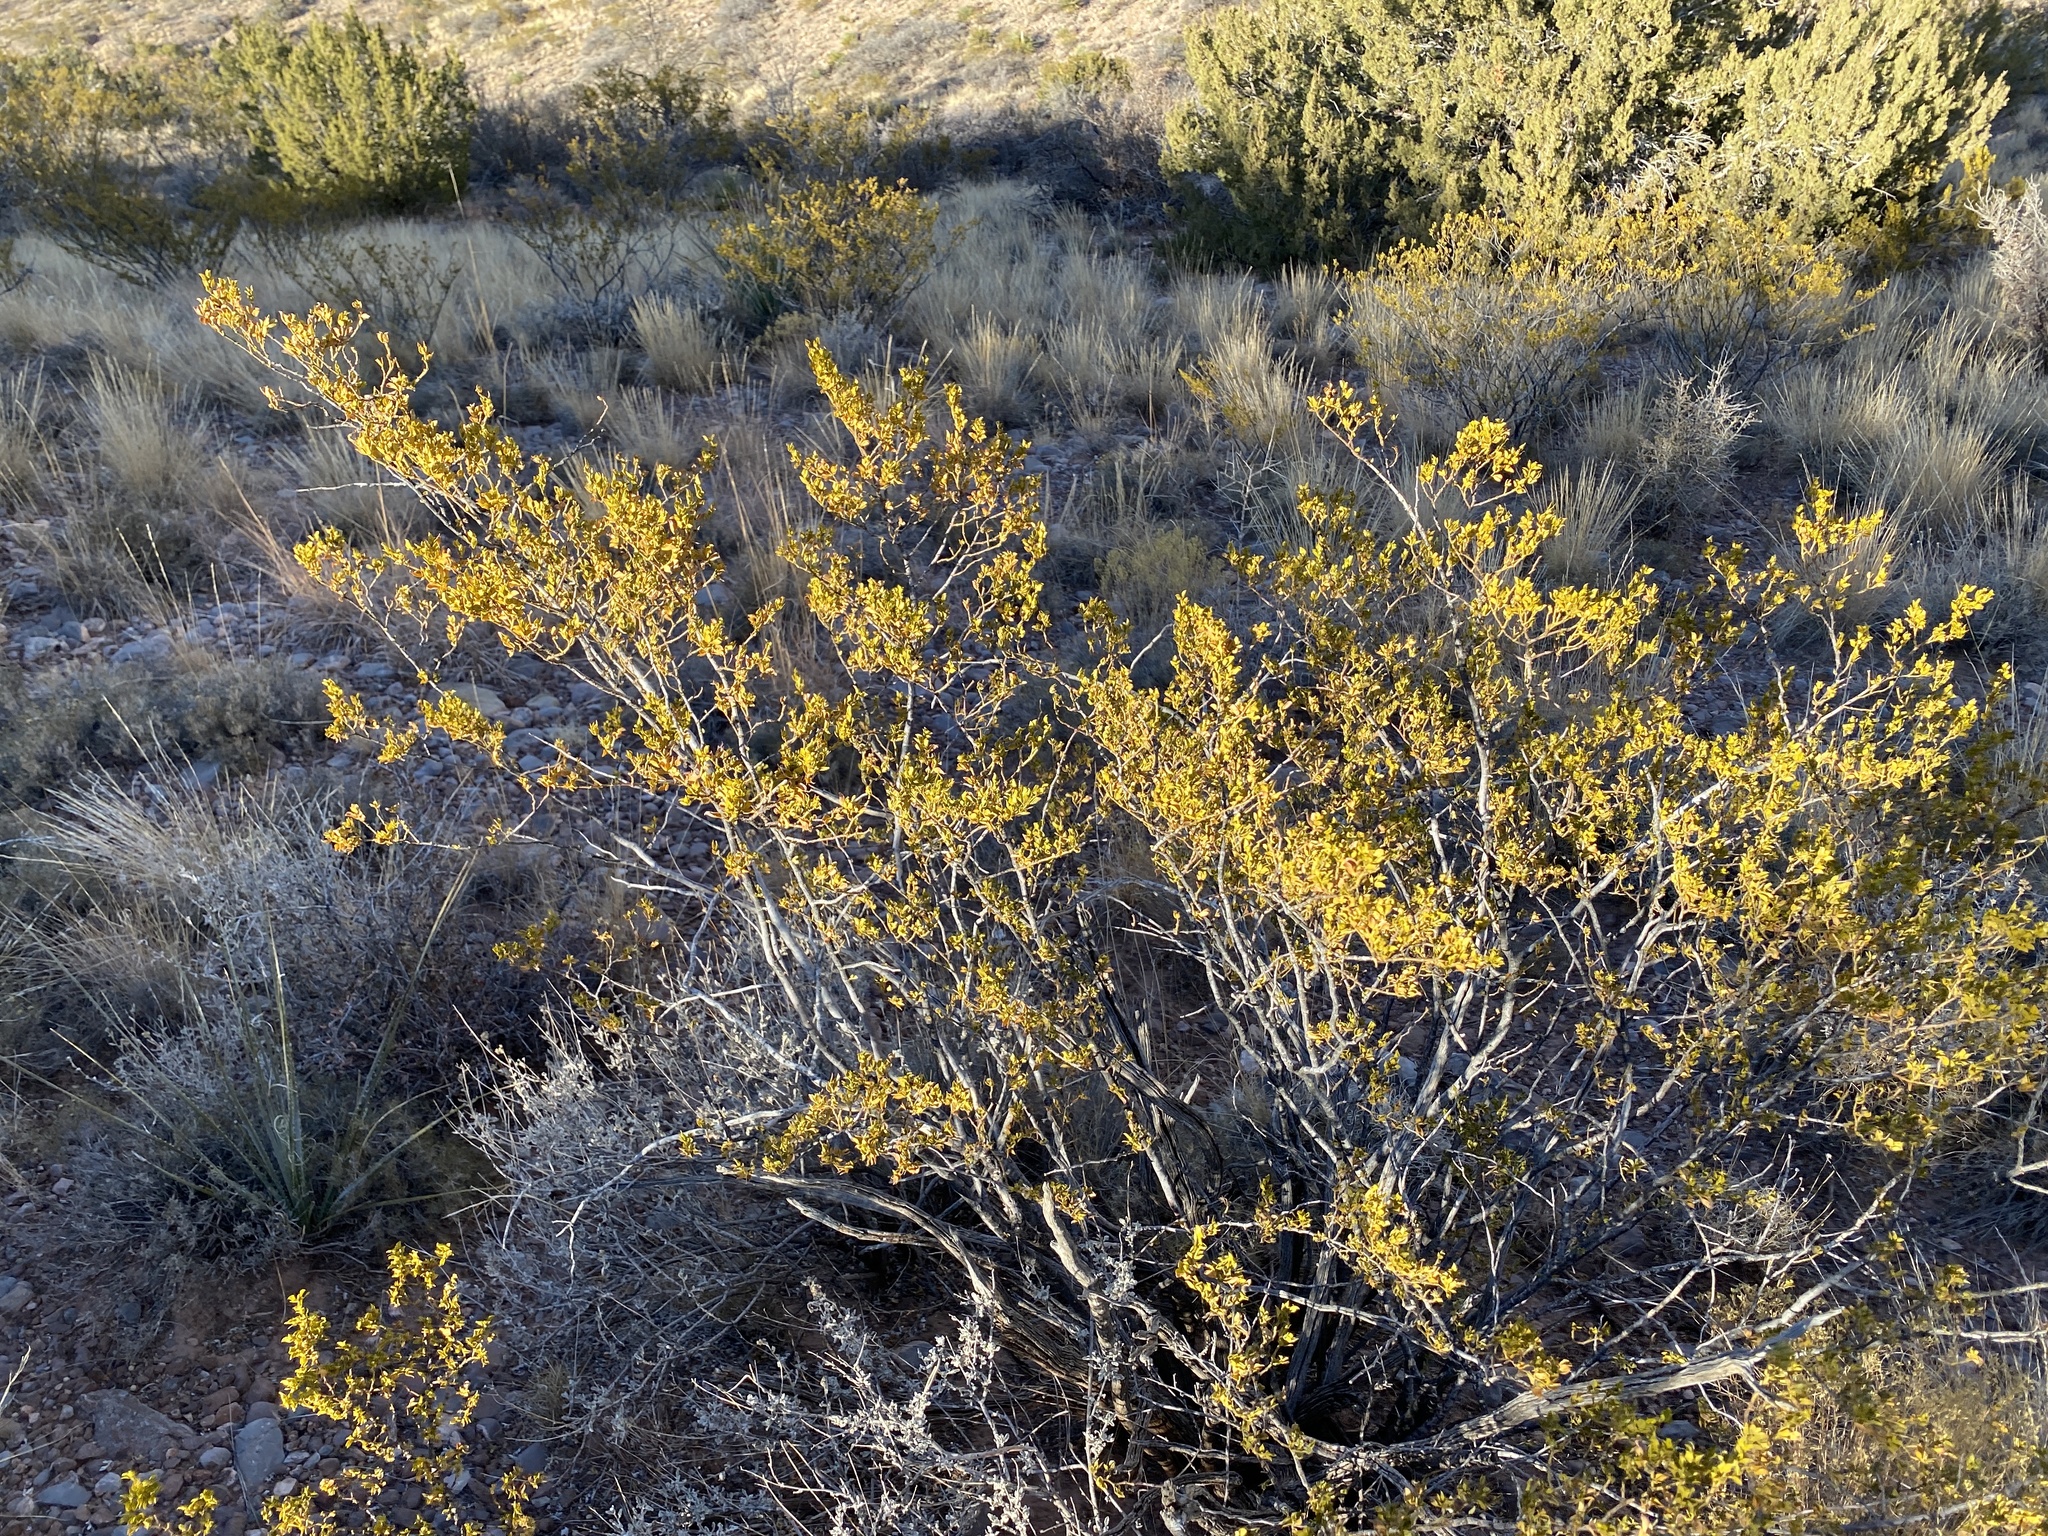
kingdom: Plantae
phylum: Tracheophyta
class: Magnoliopsida
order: Zygophyllales
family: Zygophyllaceae
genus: Larrea
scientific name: Larrea tridentata
